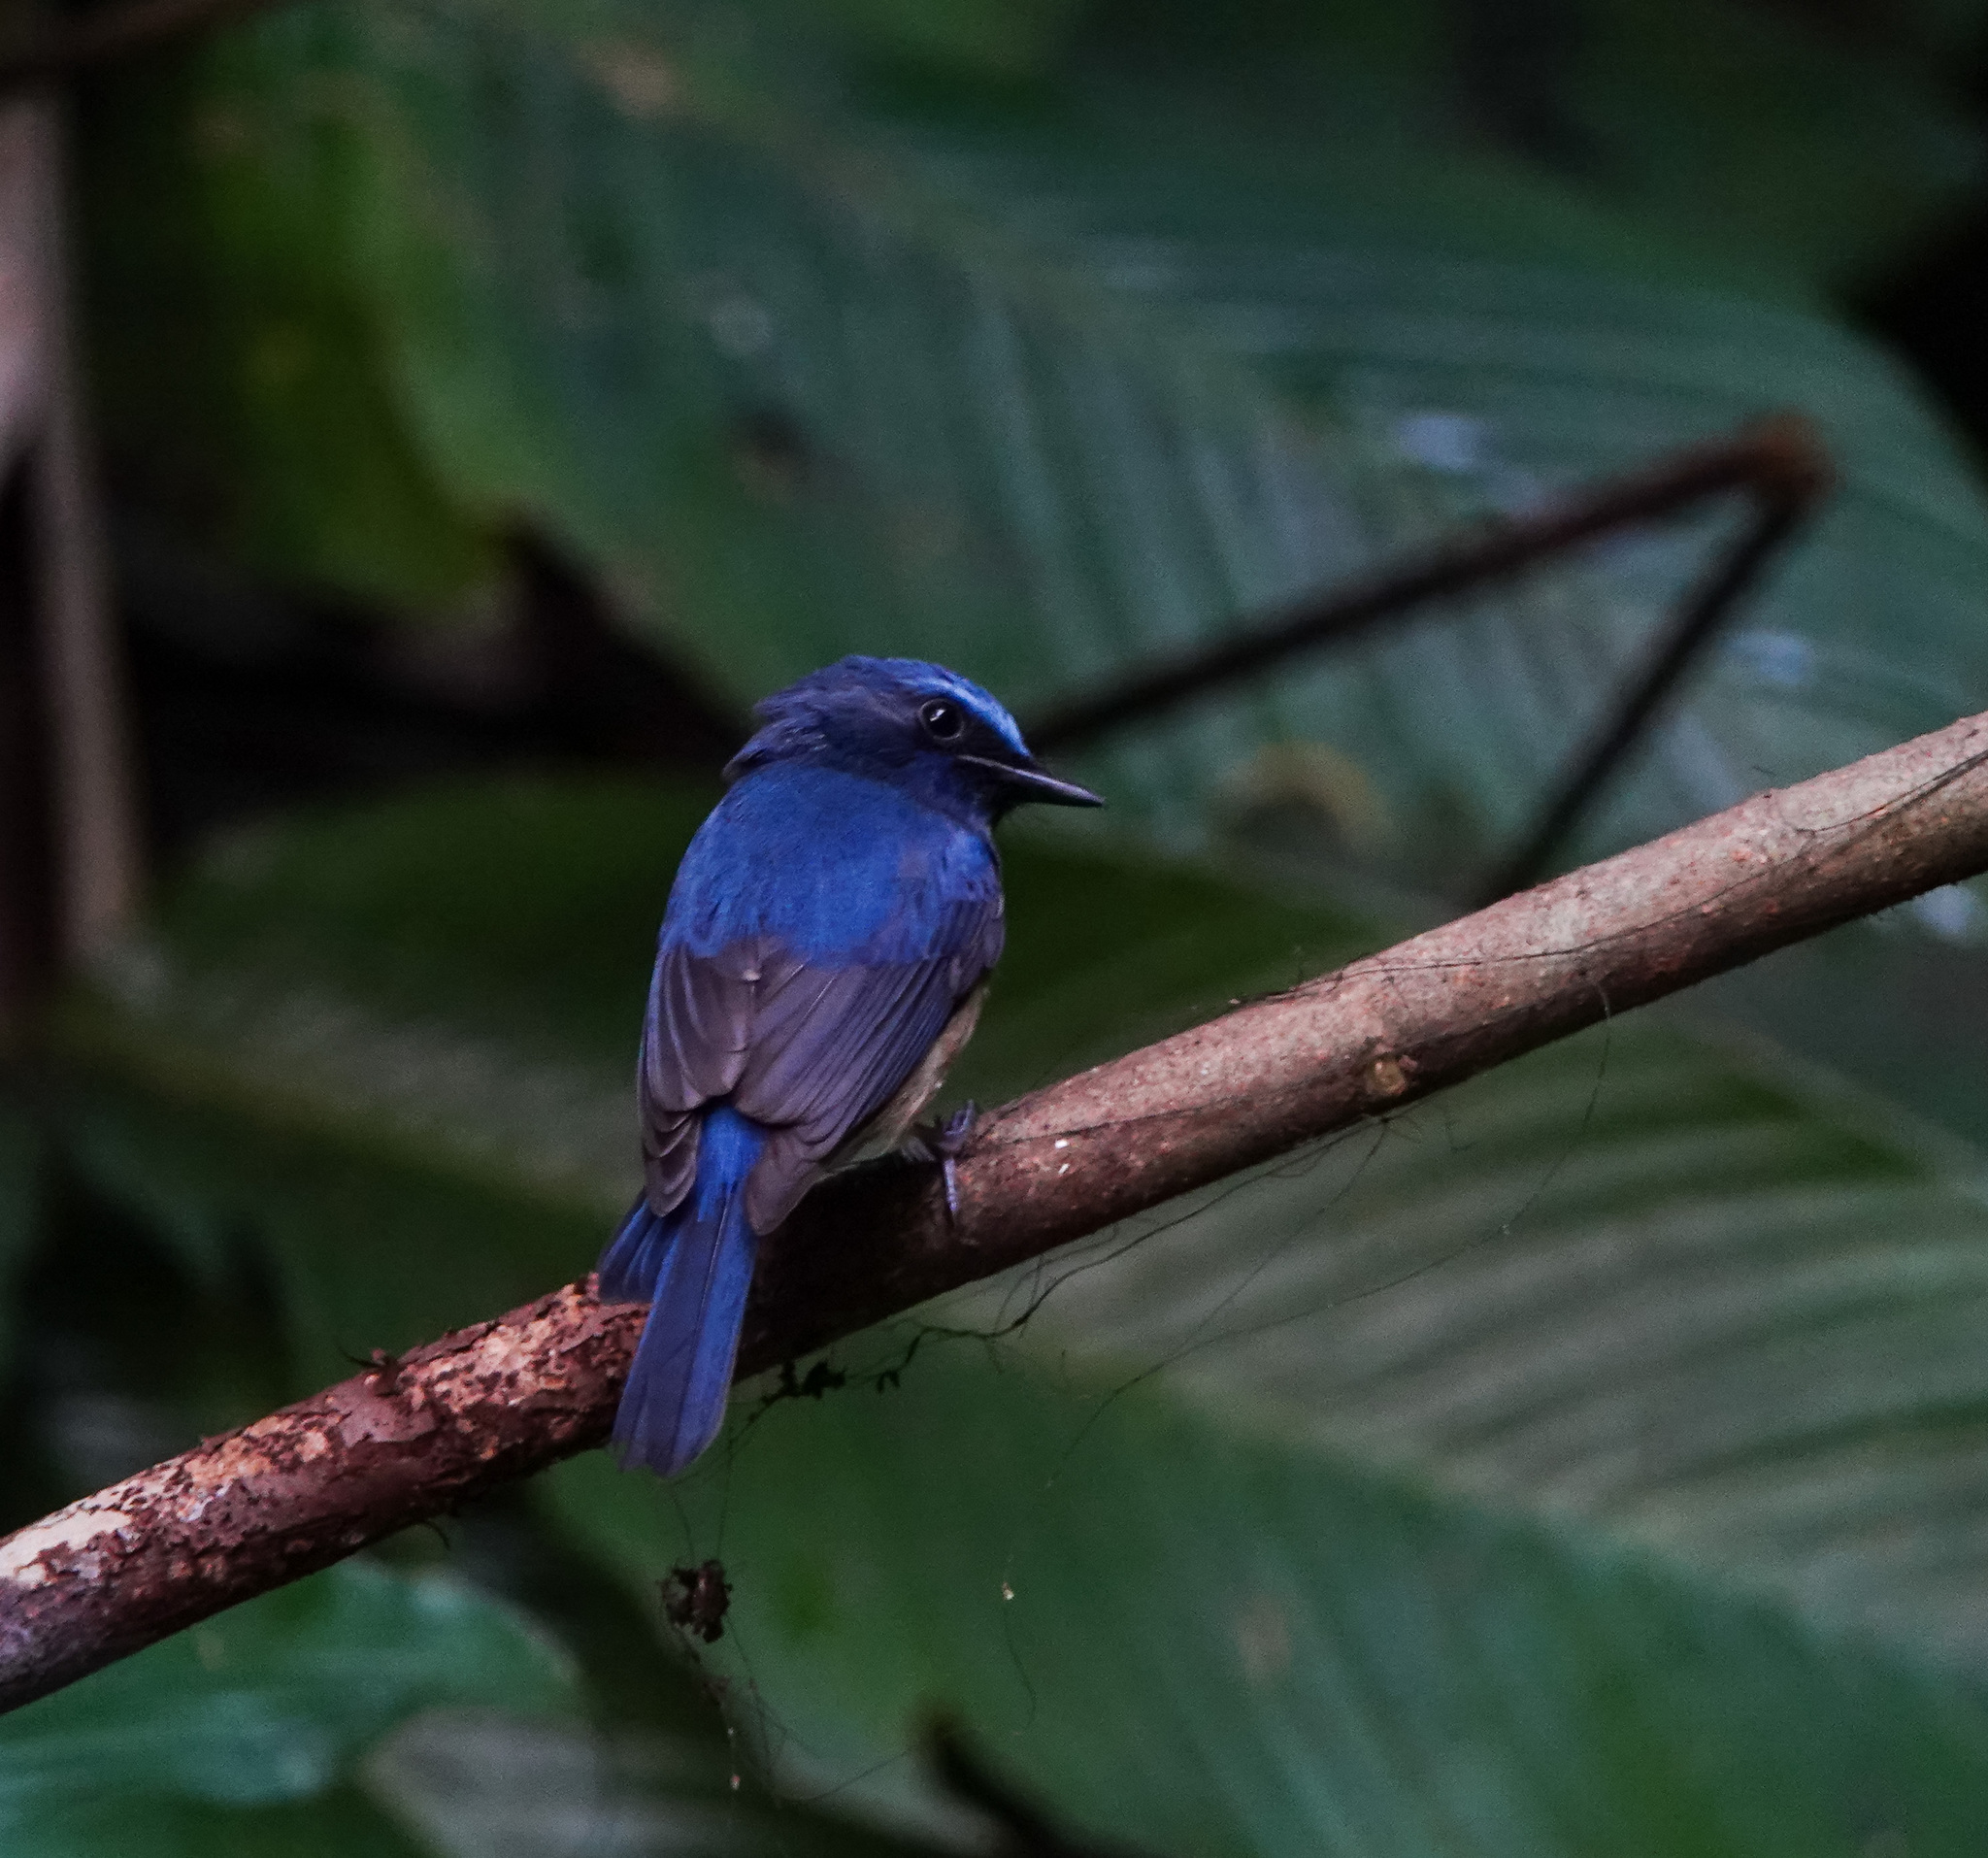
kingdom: Animalia
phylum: Chordata
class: Aves
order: Passeriformes
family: Muscicapidae
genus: Cyornis
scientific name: Cyornis rubeculoides
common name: Blue-throated blue flycatcher
